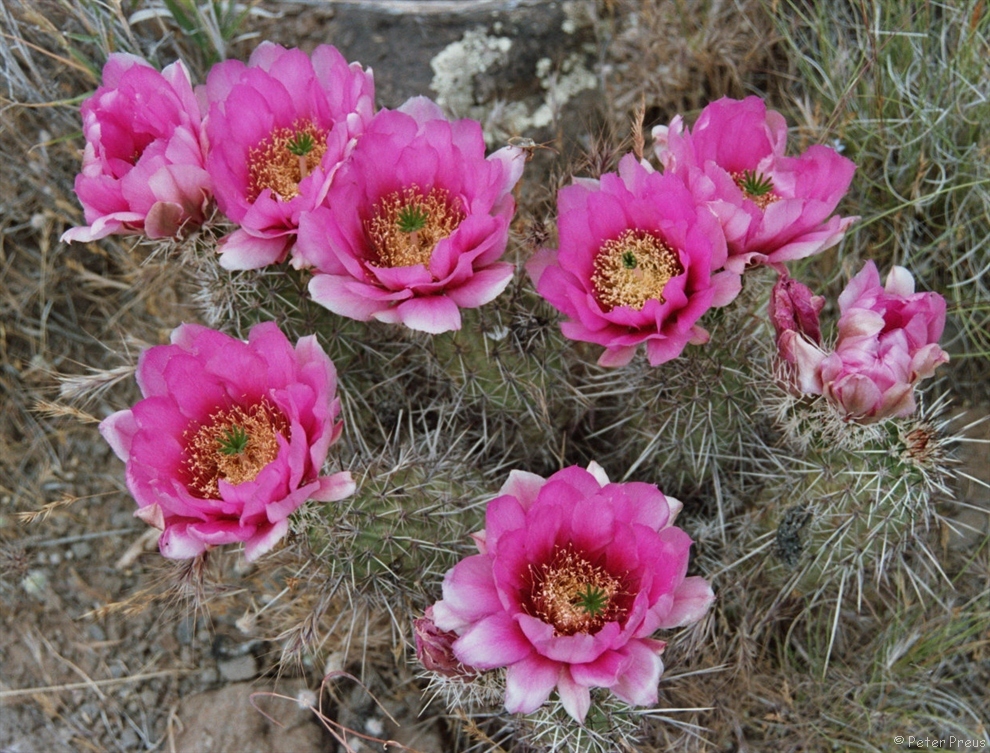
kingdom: Plantae
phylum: Tracheophyta
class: Magnoliopsida
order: Caryophyllales
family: Cactaceae
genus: Echinocereus
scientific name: Echinocereus fasciculatus
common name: Bundle hedgehog
